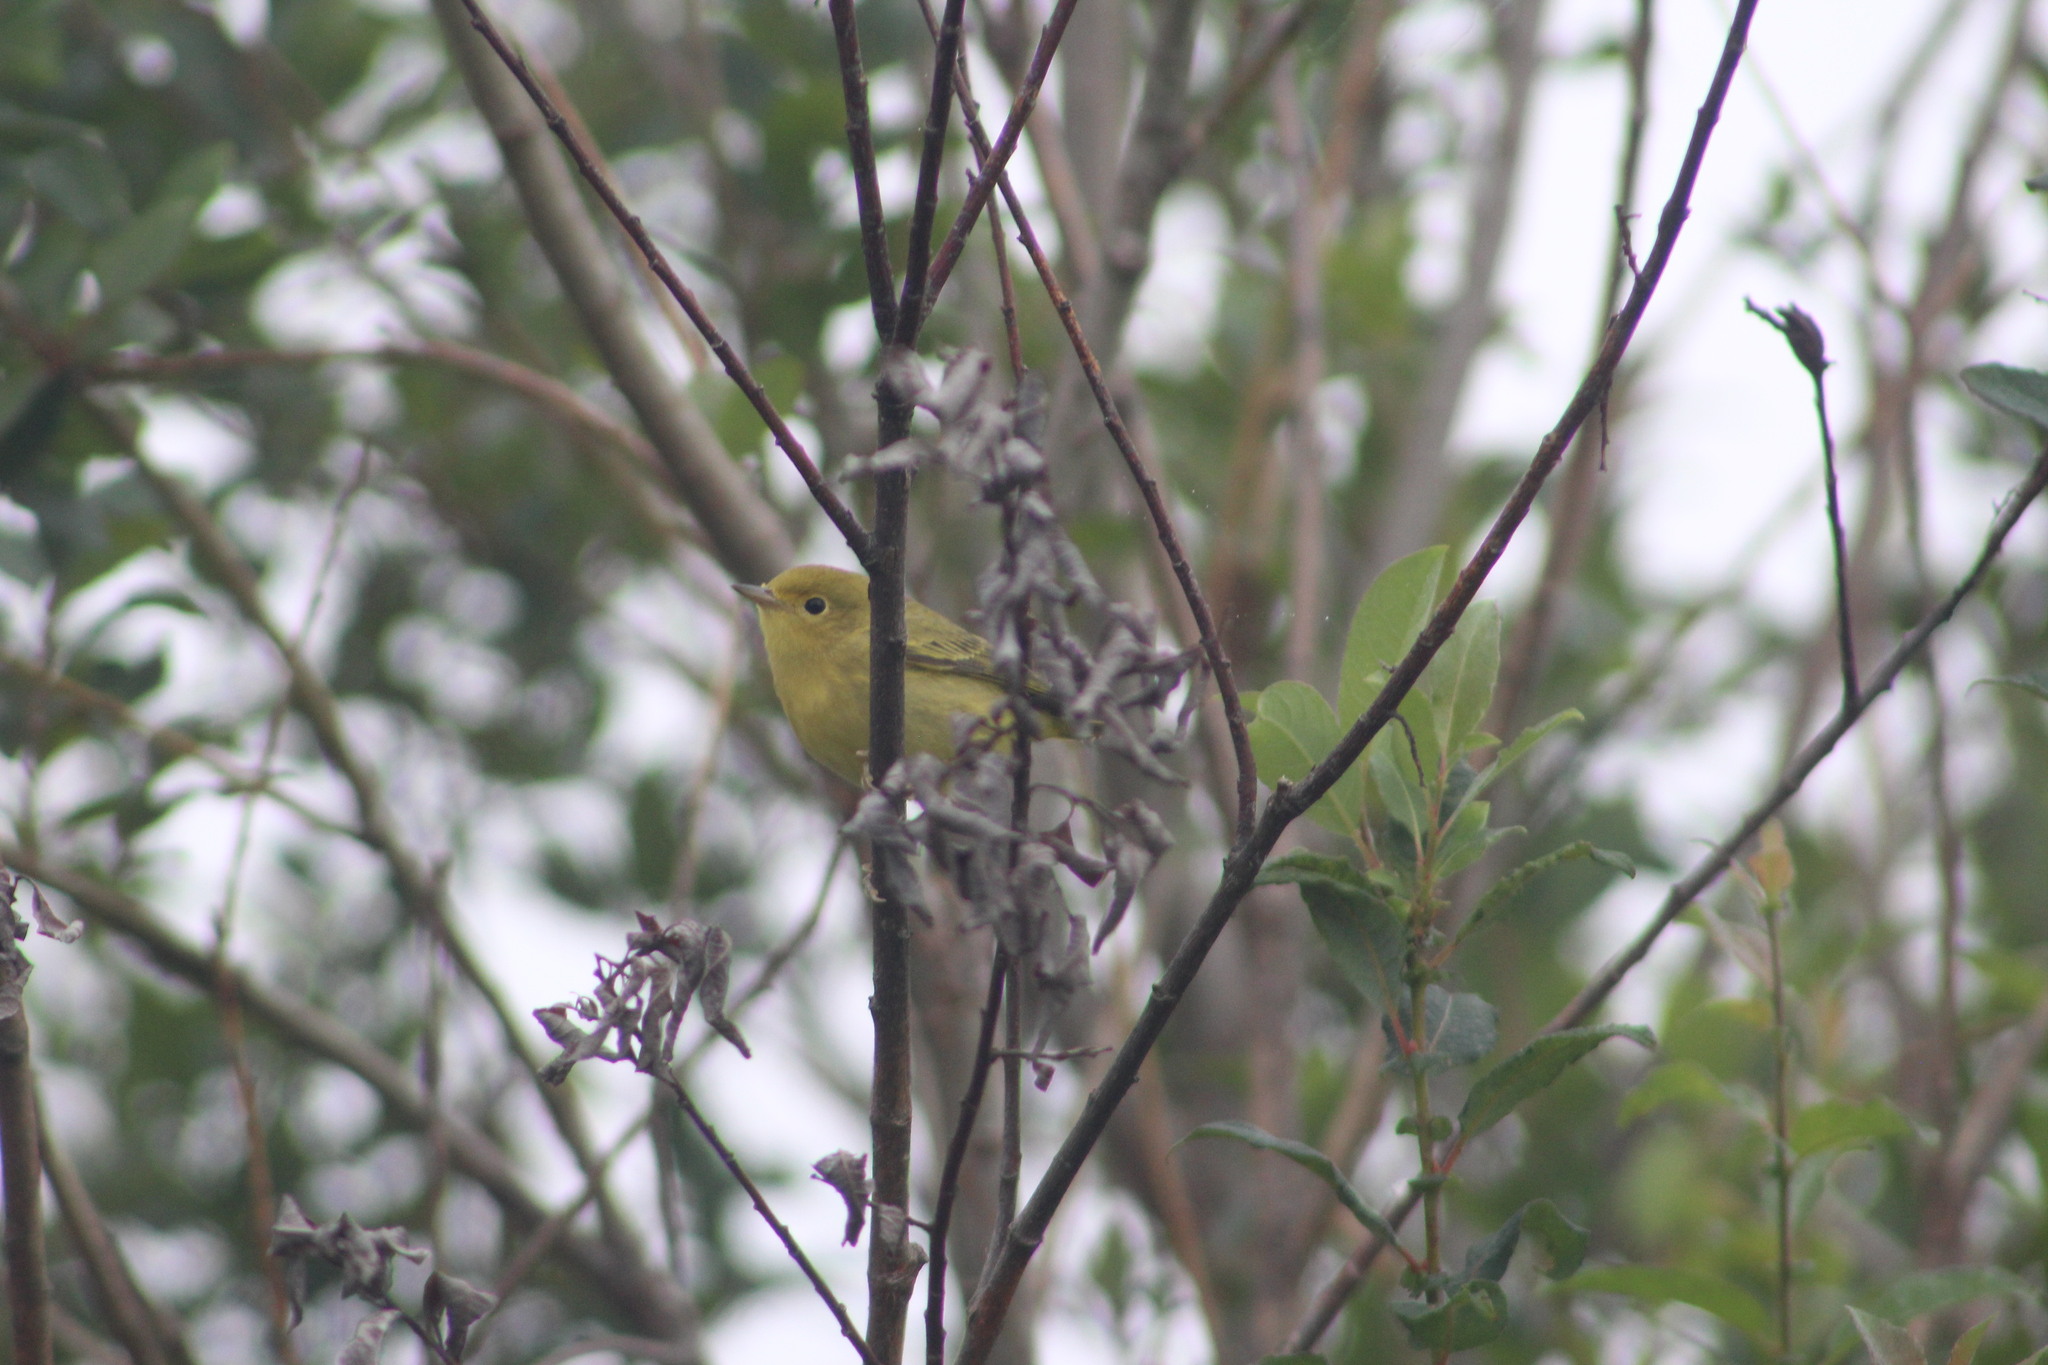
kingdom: Animalia
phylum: Chordata
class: Aves
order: Passeriformes
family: Parulidae
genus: Setophaga
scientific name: Setophaga petechia
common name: Yellow warbler
